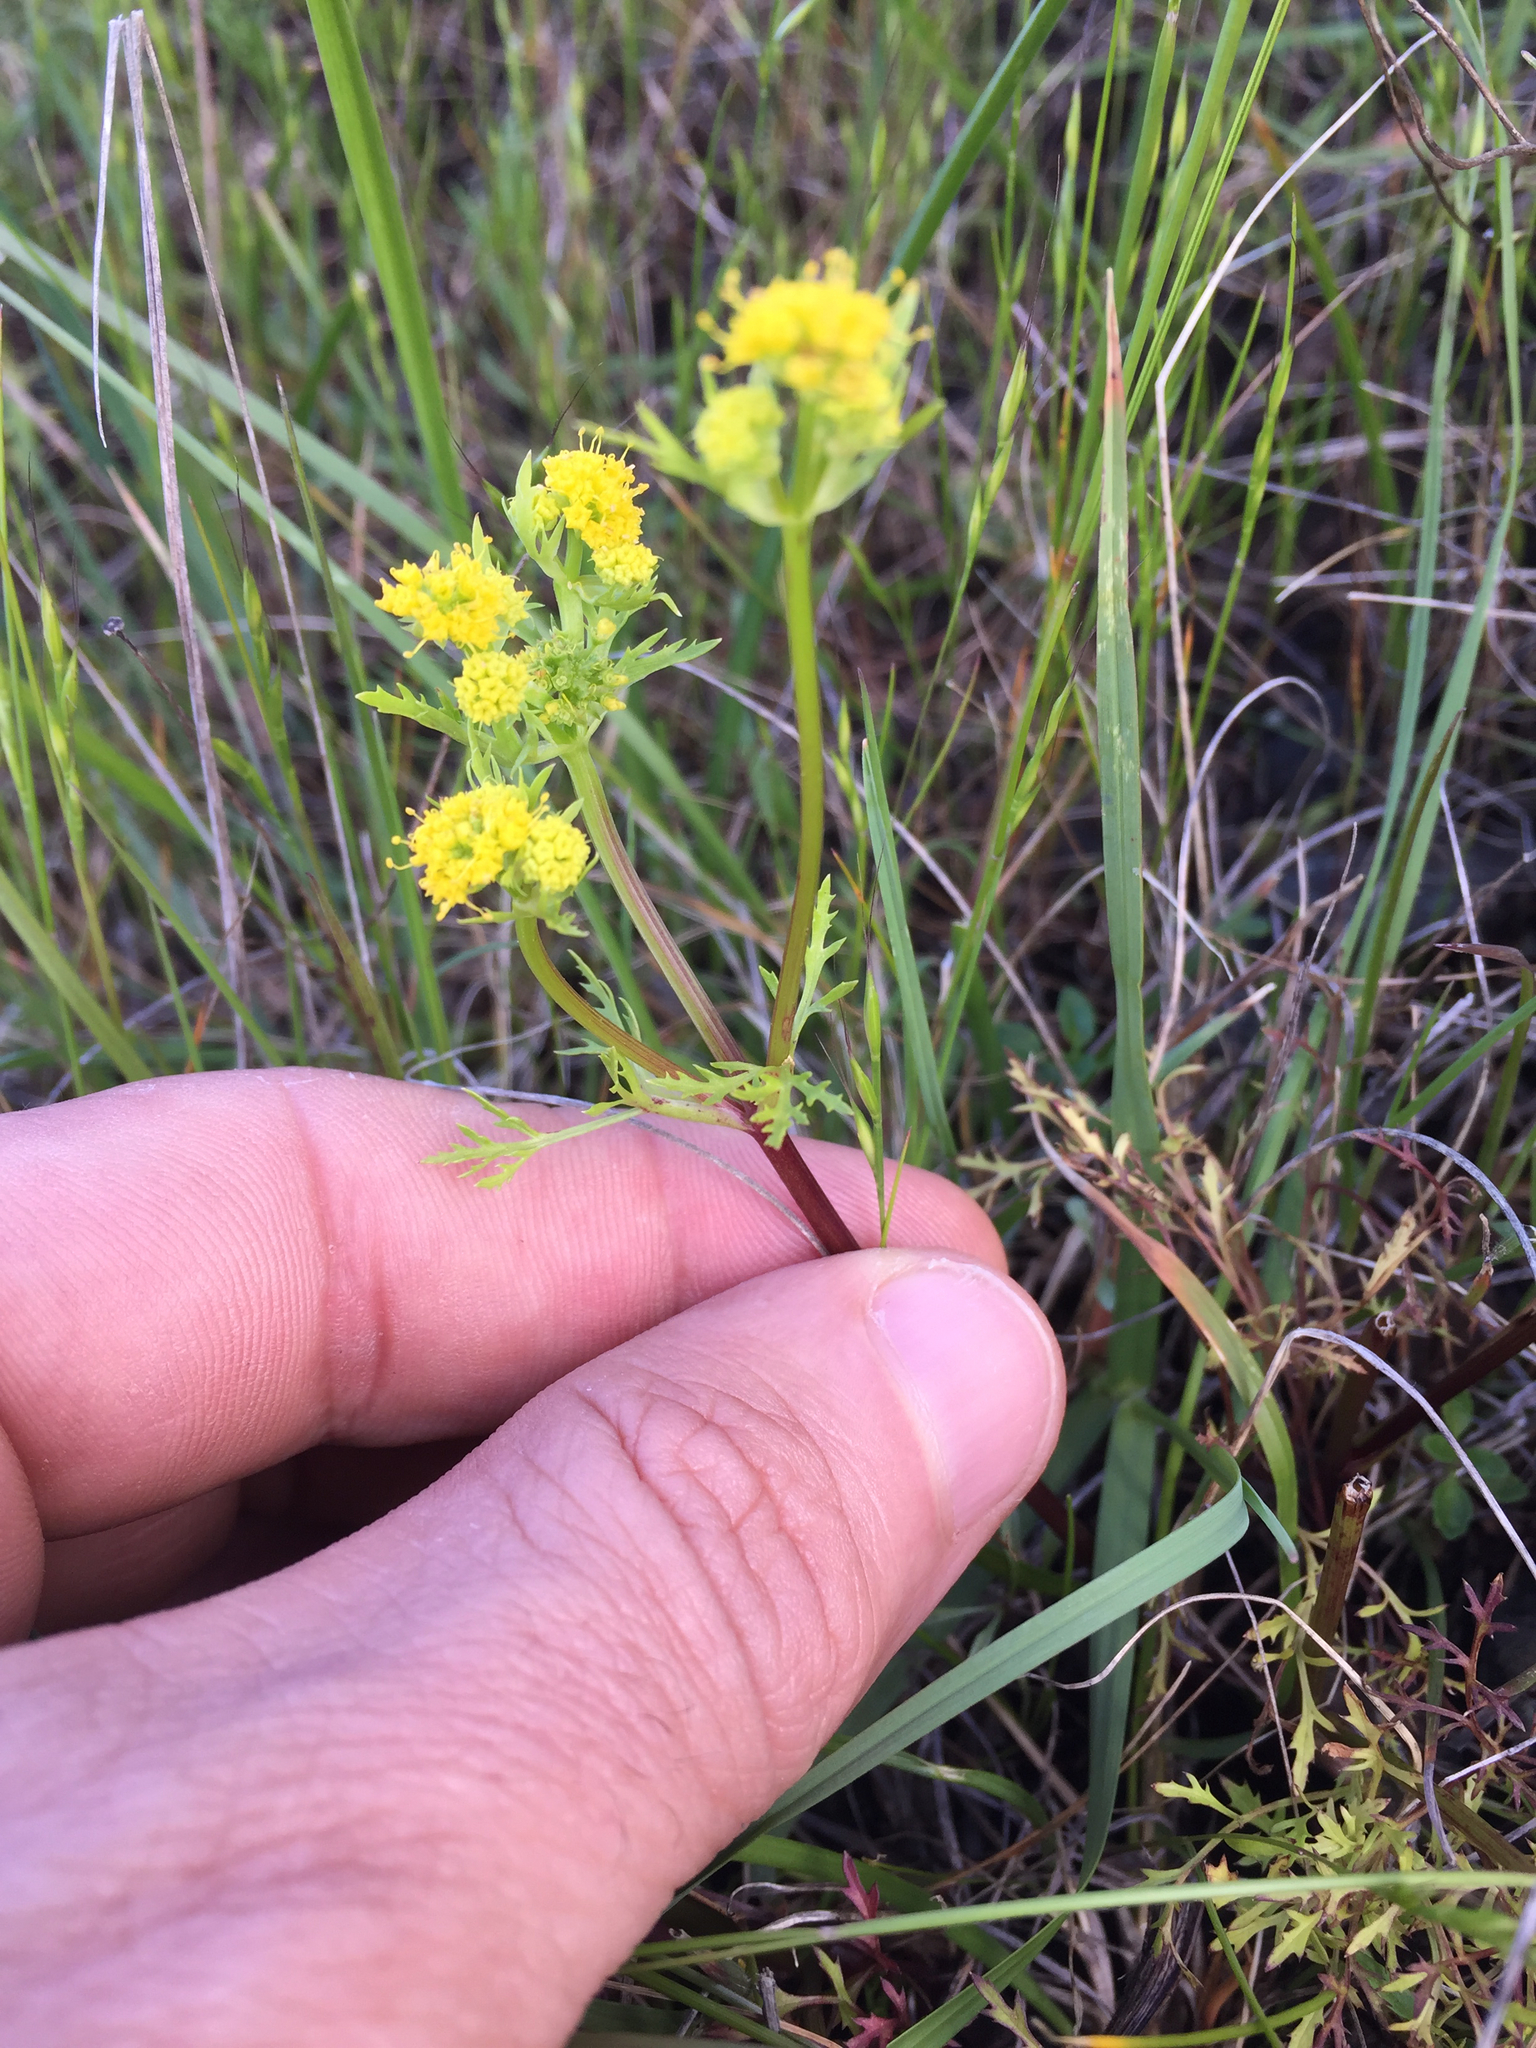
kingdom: Plantae
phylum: Tracheophyta
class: Magnoliopsida
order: Apiales
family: Apiaceae
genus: Sanicula
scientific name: Sanicula tuberosa
